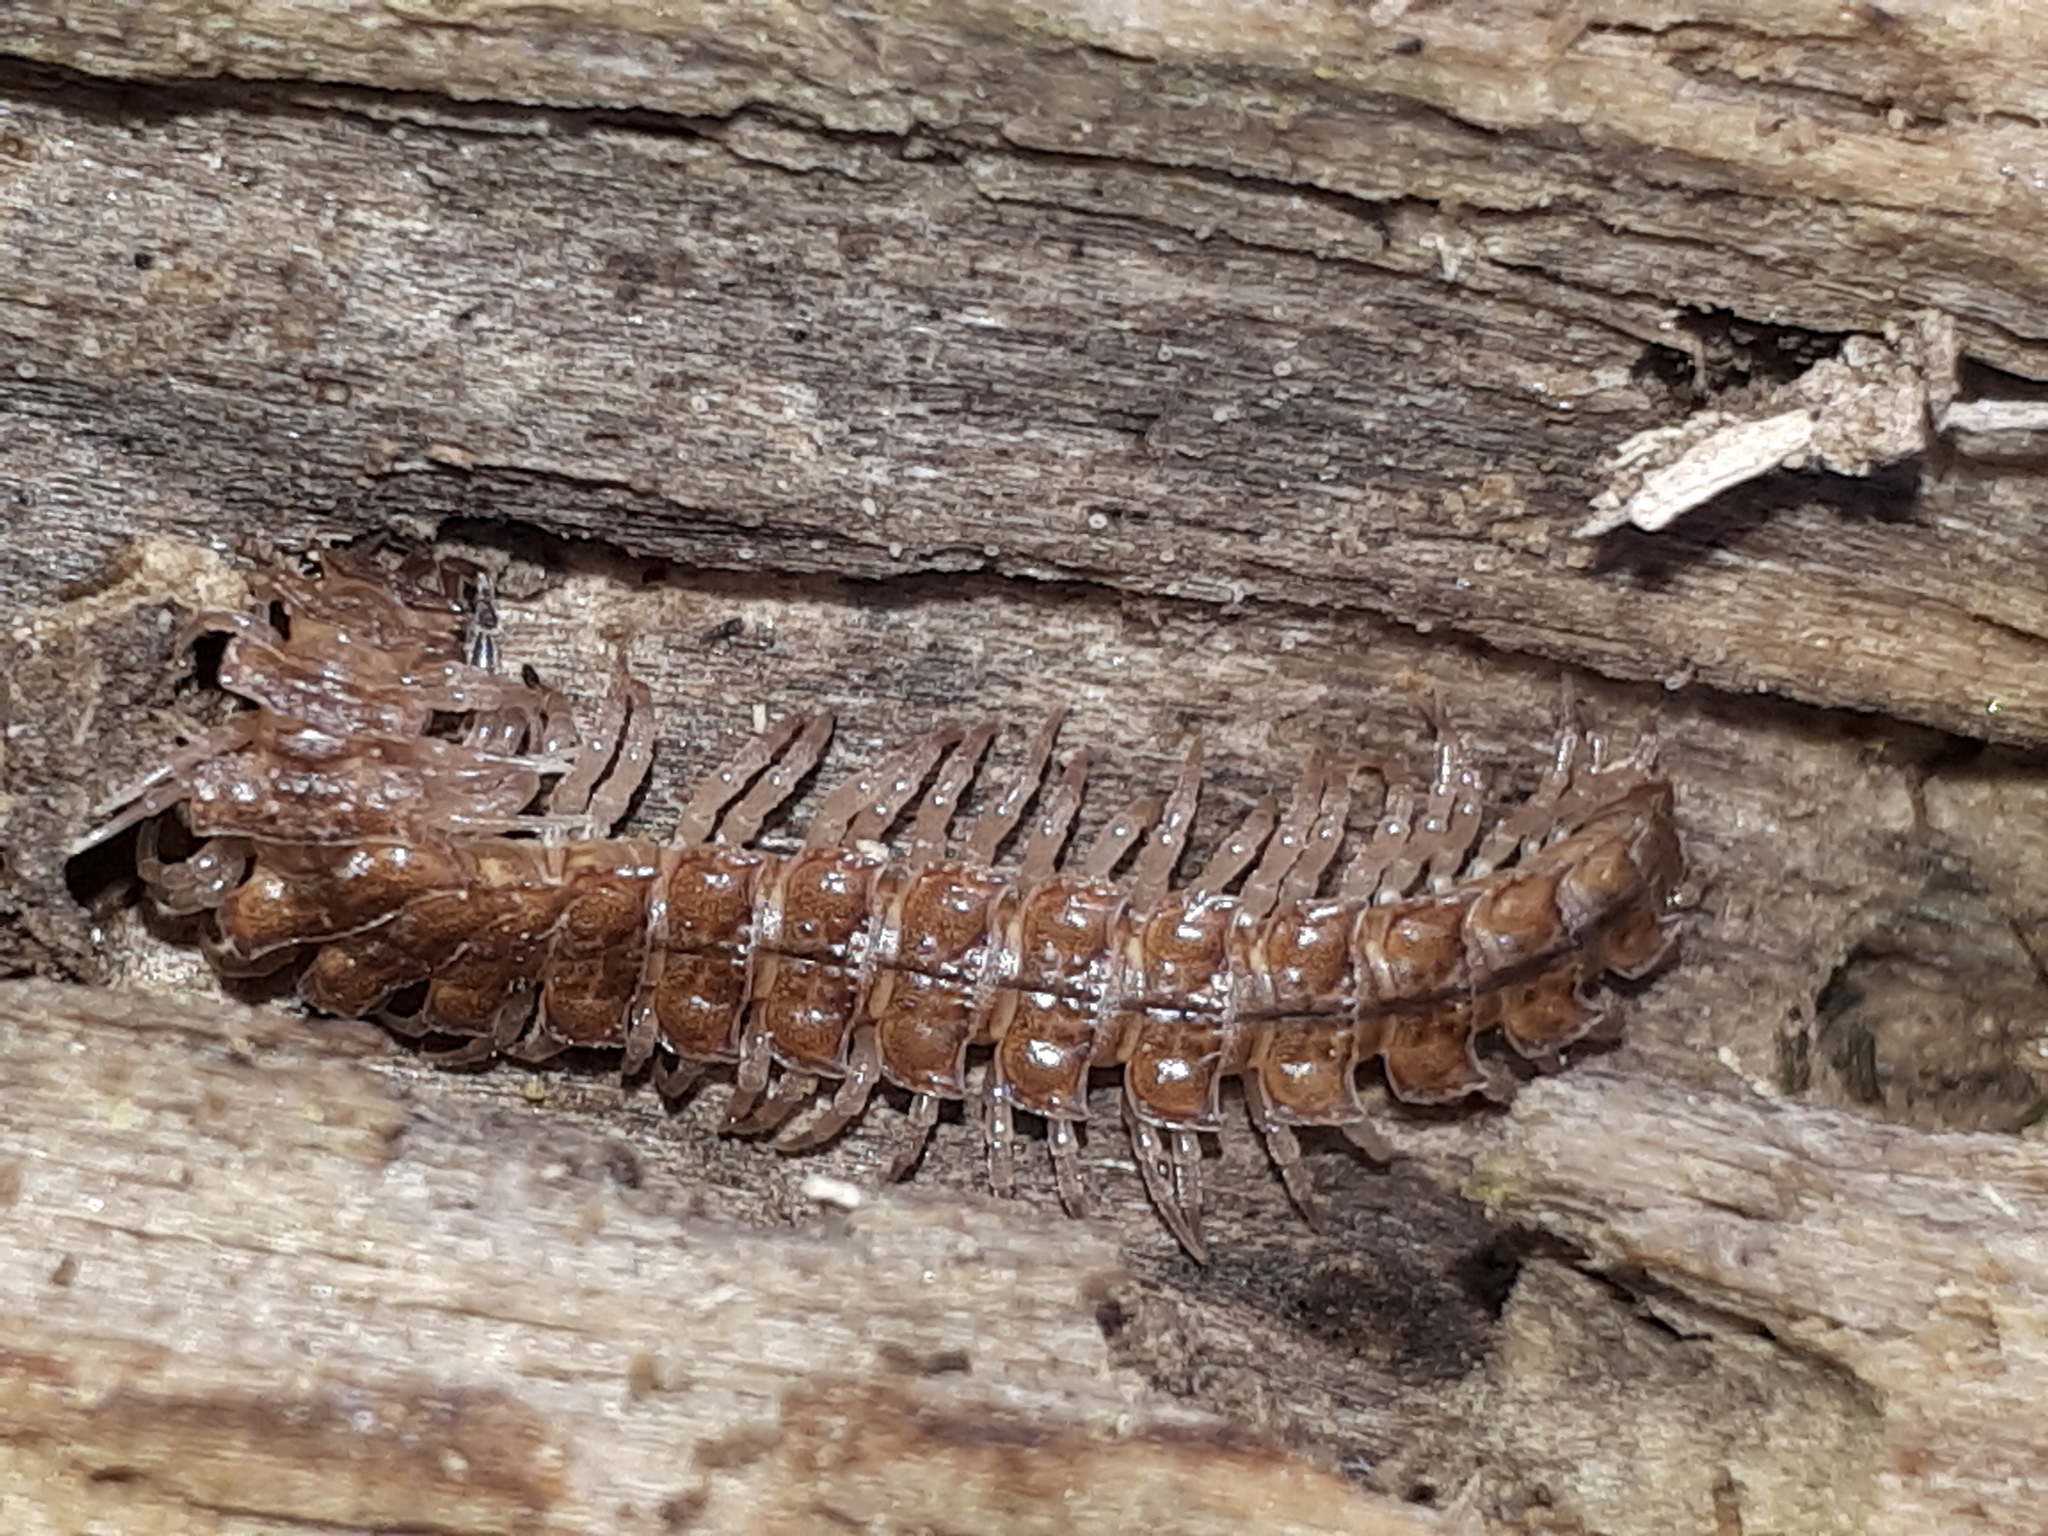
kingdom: Animalia
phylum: Arthropoda
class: Diplopoda
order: Polydesmida
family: Polydesmidae
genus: Polydesmus
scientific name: Polydesmus angustus
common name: Flat millipede
